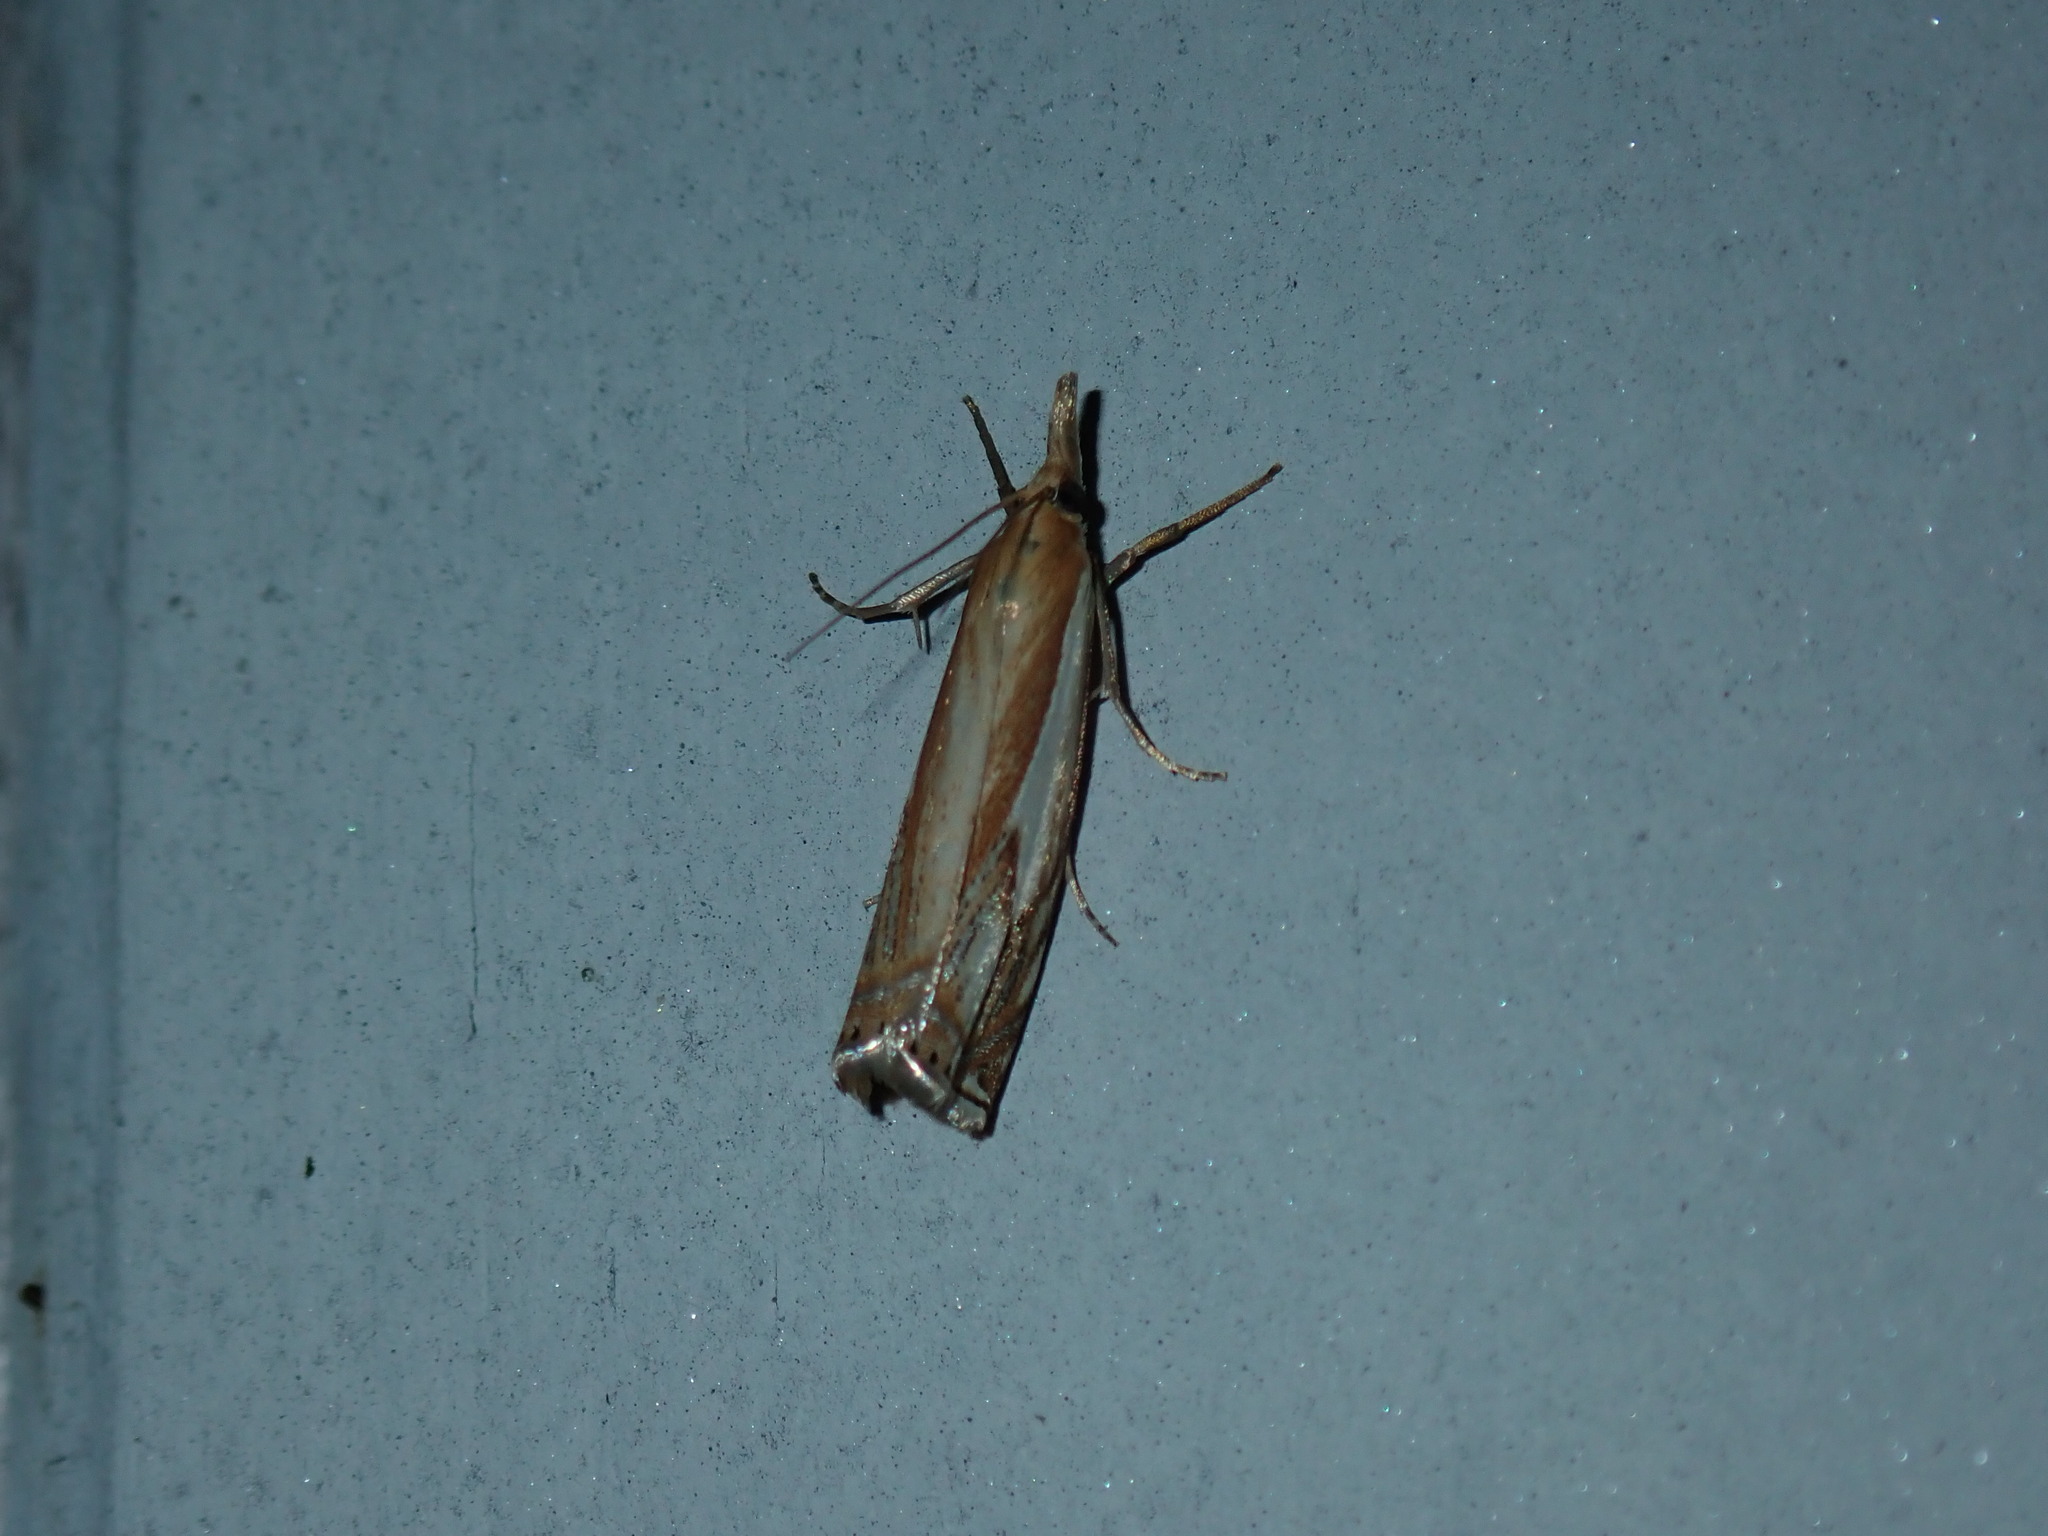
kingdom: Animalia
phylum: Arthropoda
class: Insecta
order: Lepidoptera
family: Crambidae
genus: Crambus
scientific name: Crambus agitatellus
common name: Double-banded grass-veneer
